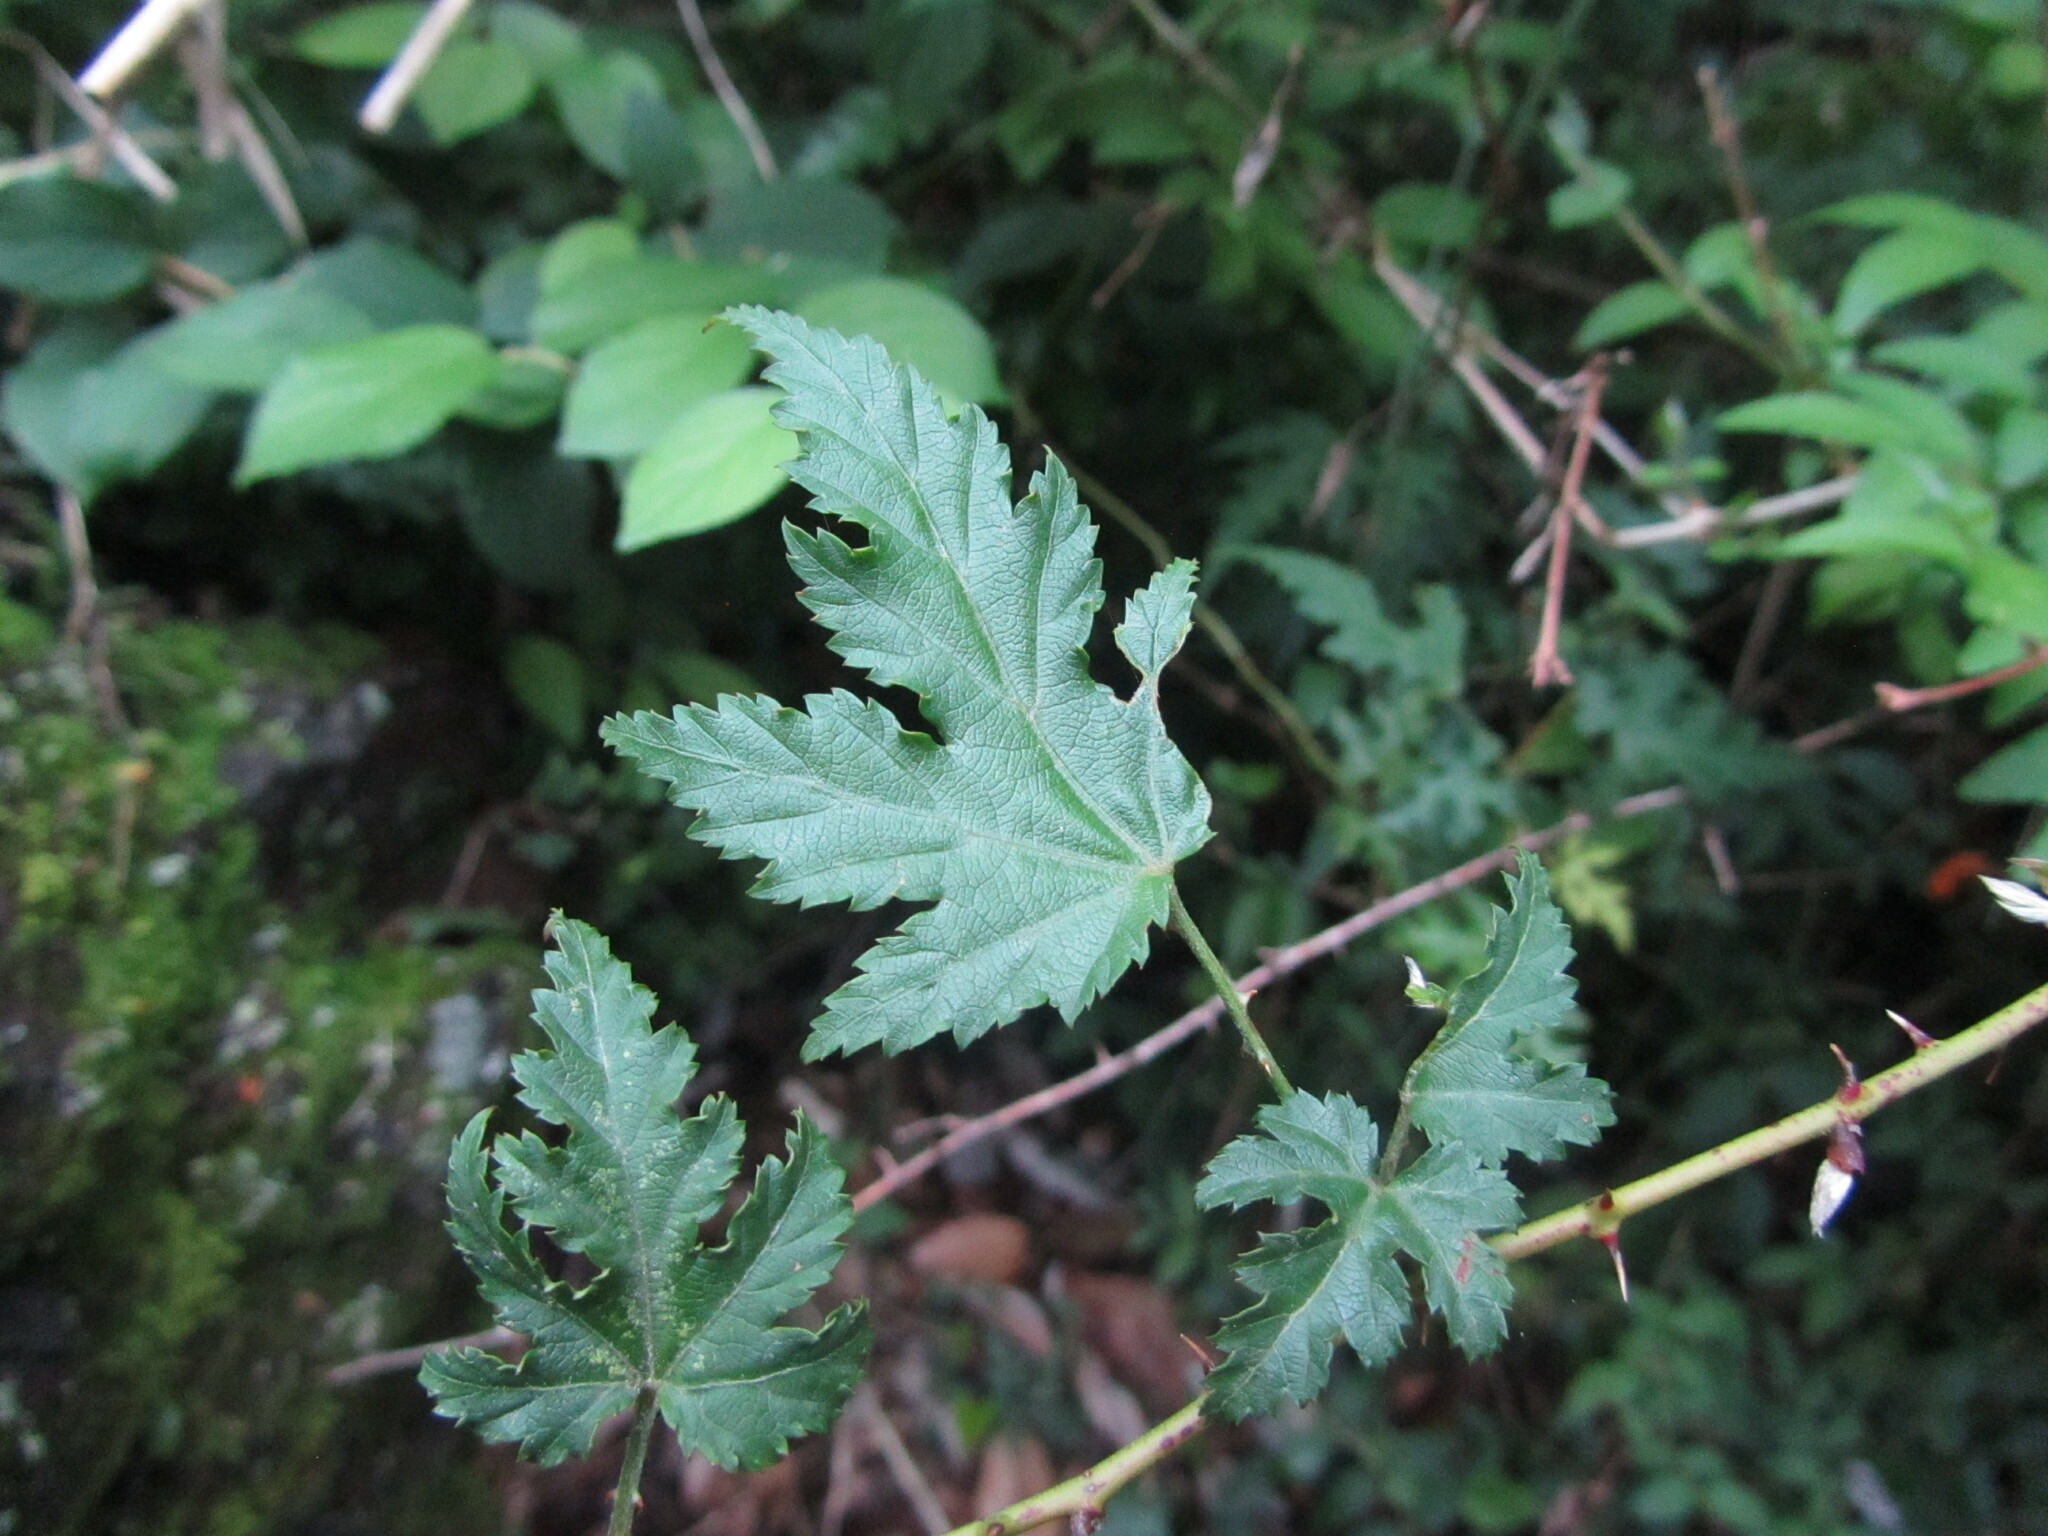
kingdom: Plantae
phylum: Tracheophyta
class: Magnoliopsida
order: Rosales
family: Rosaceae
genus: Rubus
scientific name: Rubus palmatus
